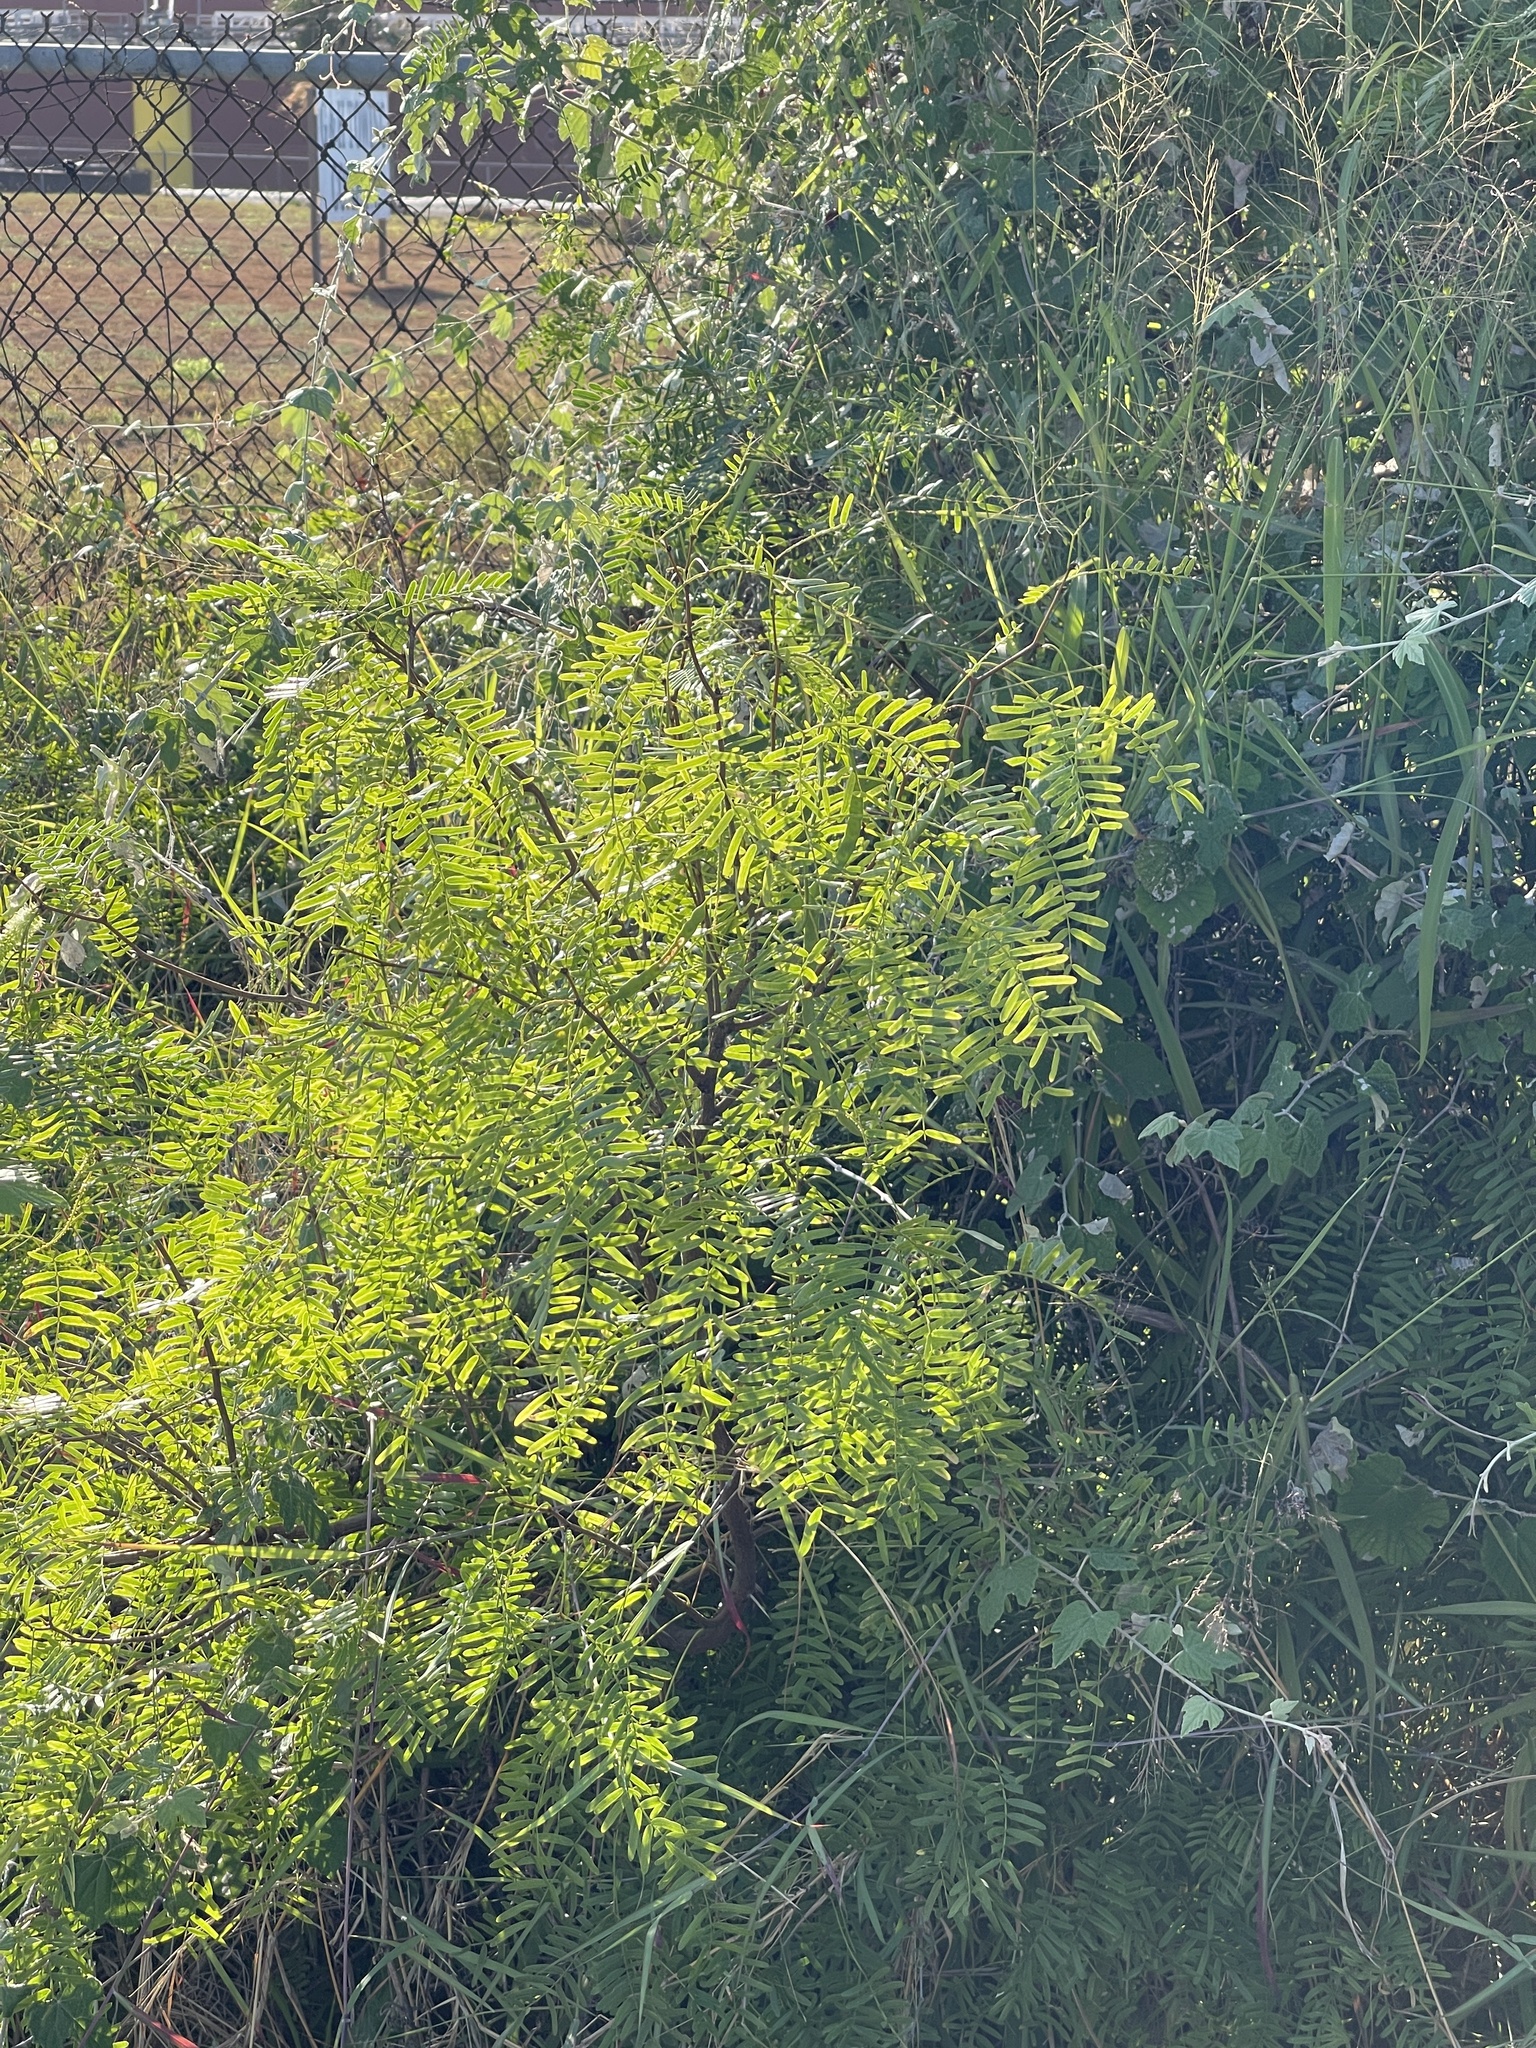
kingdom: Plantae
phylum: Tracheophyta
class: Magnoliopsida
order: Fabales
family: Fabaceae
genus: Prosopis
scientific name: Prosopis glandulosa
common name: Honey mesquite
